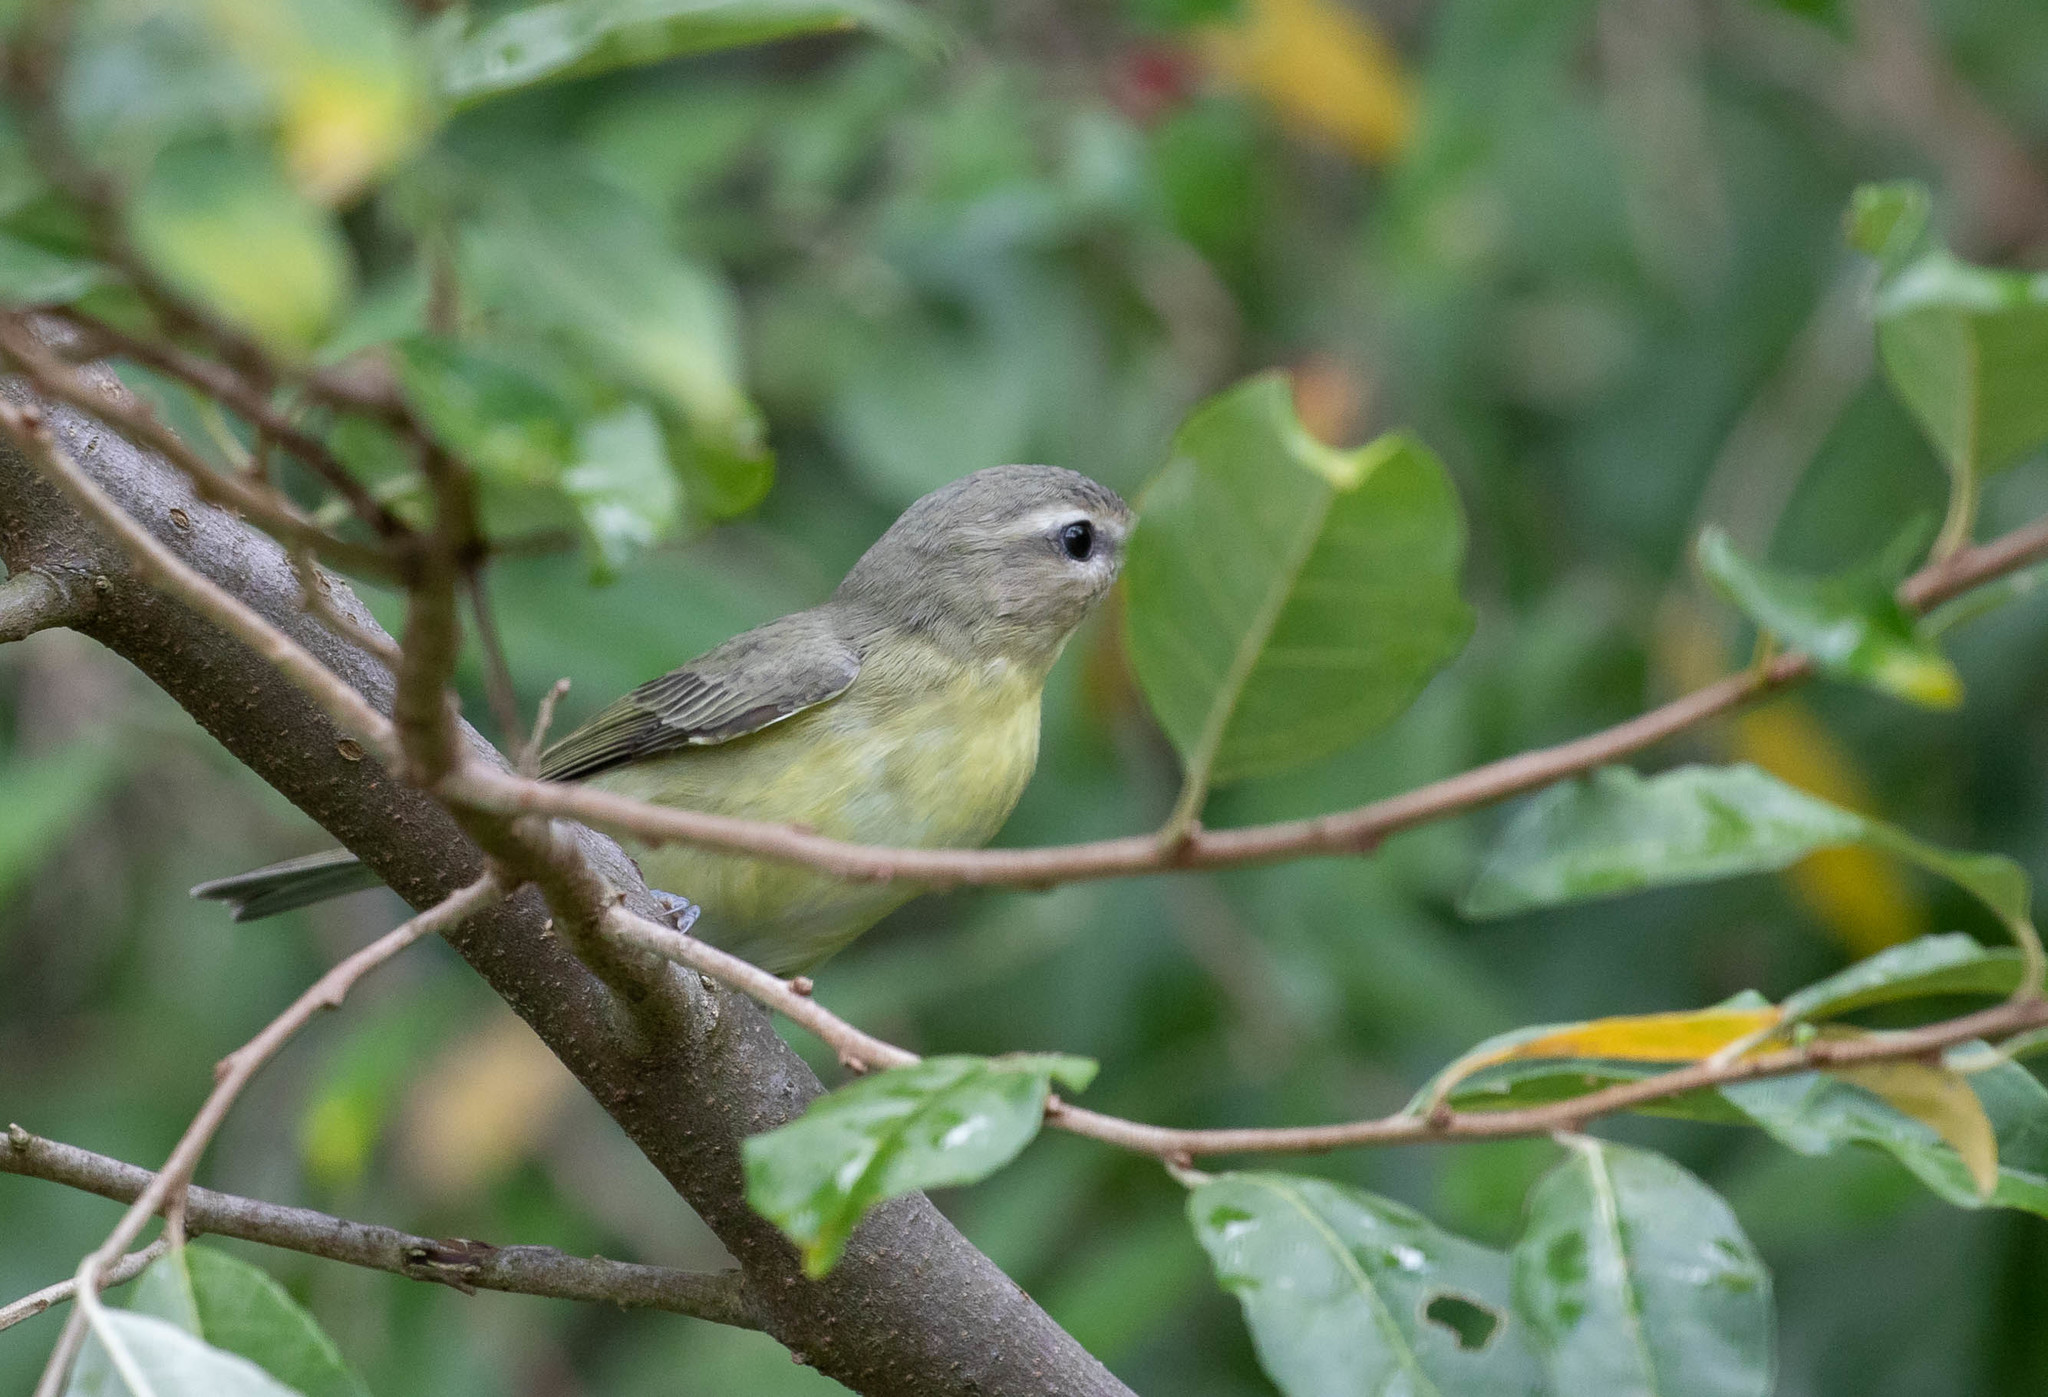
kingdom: Animalia
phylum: Chordata
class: Aves
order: Passeriformes
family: Vireonidae
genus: Vireo
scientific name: Vireo philadelphicus
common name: Philadelphia vireo
